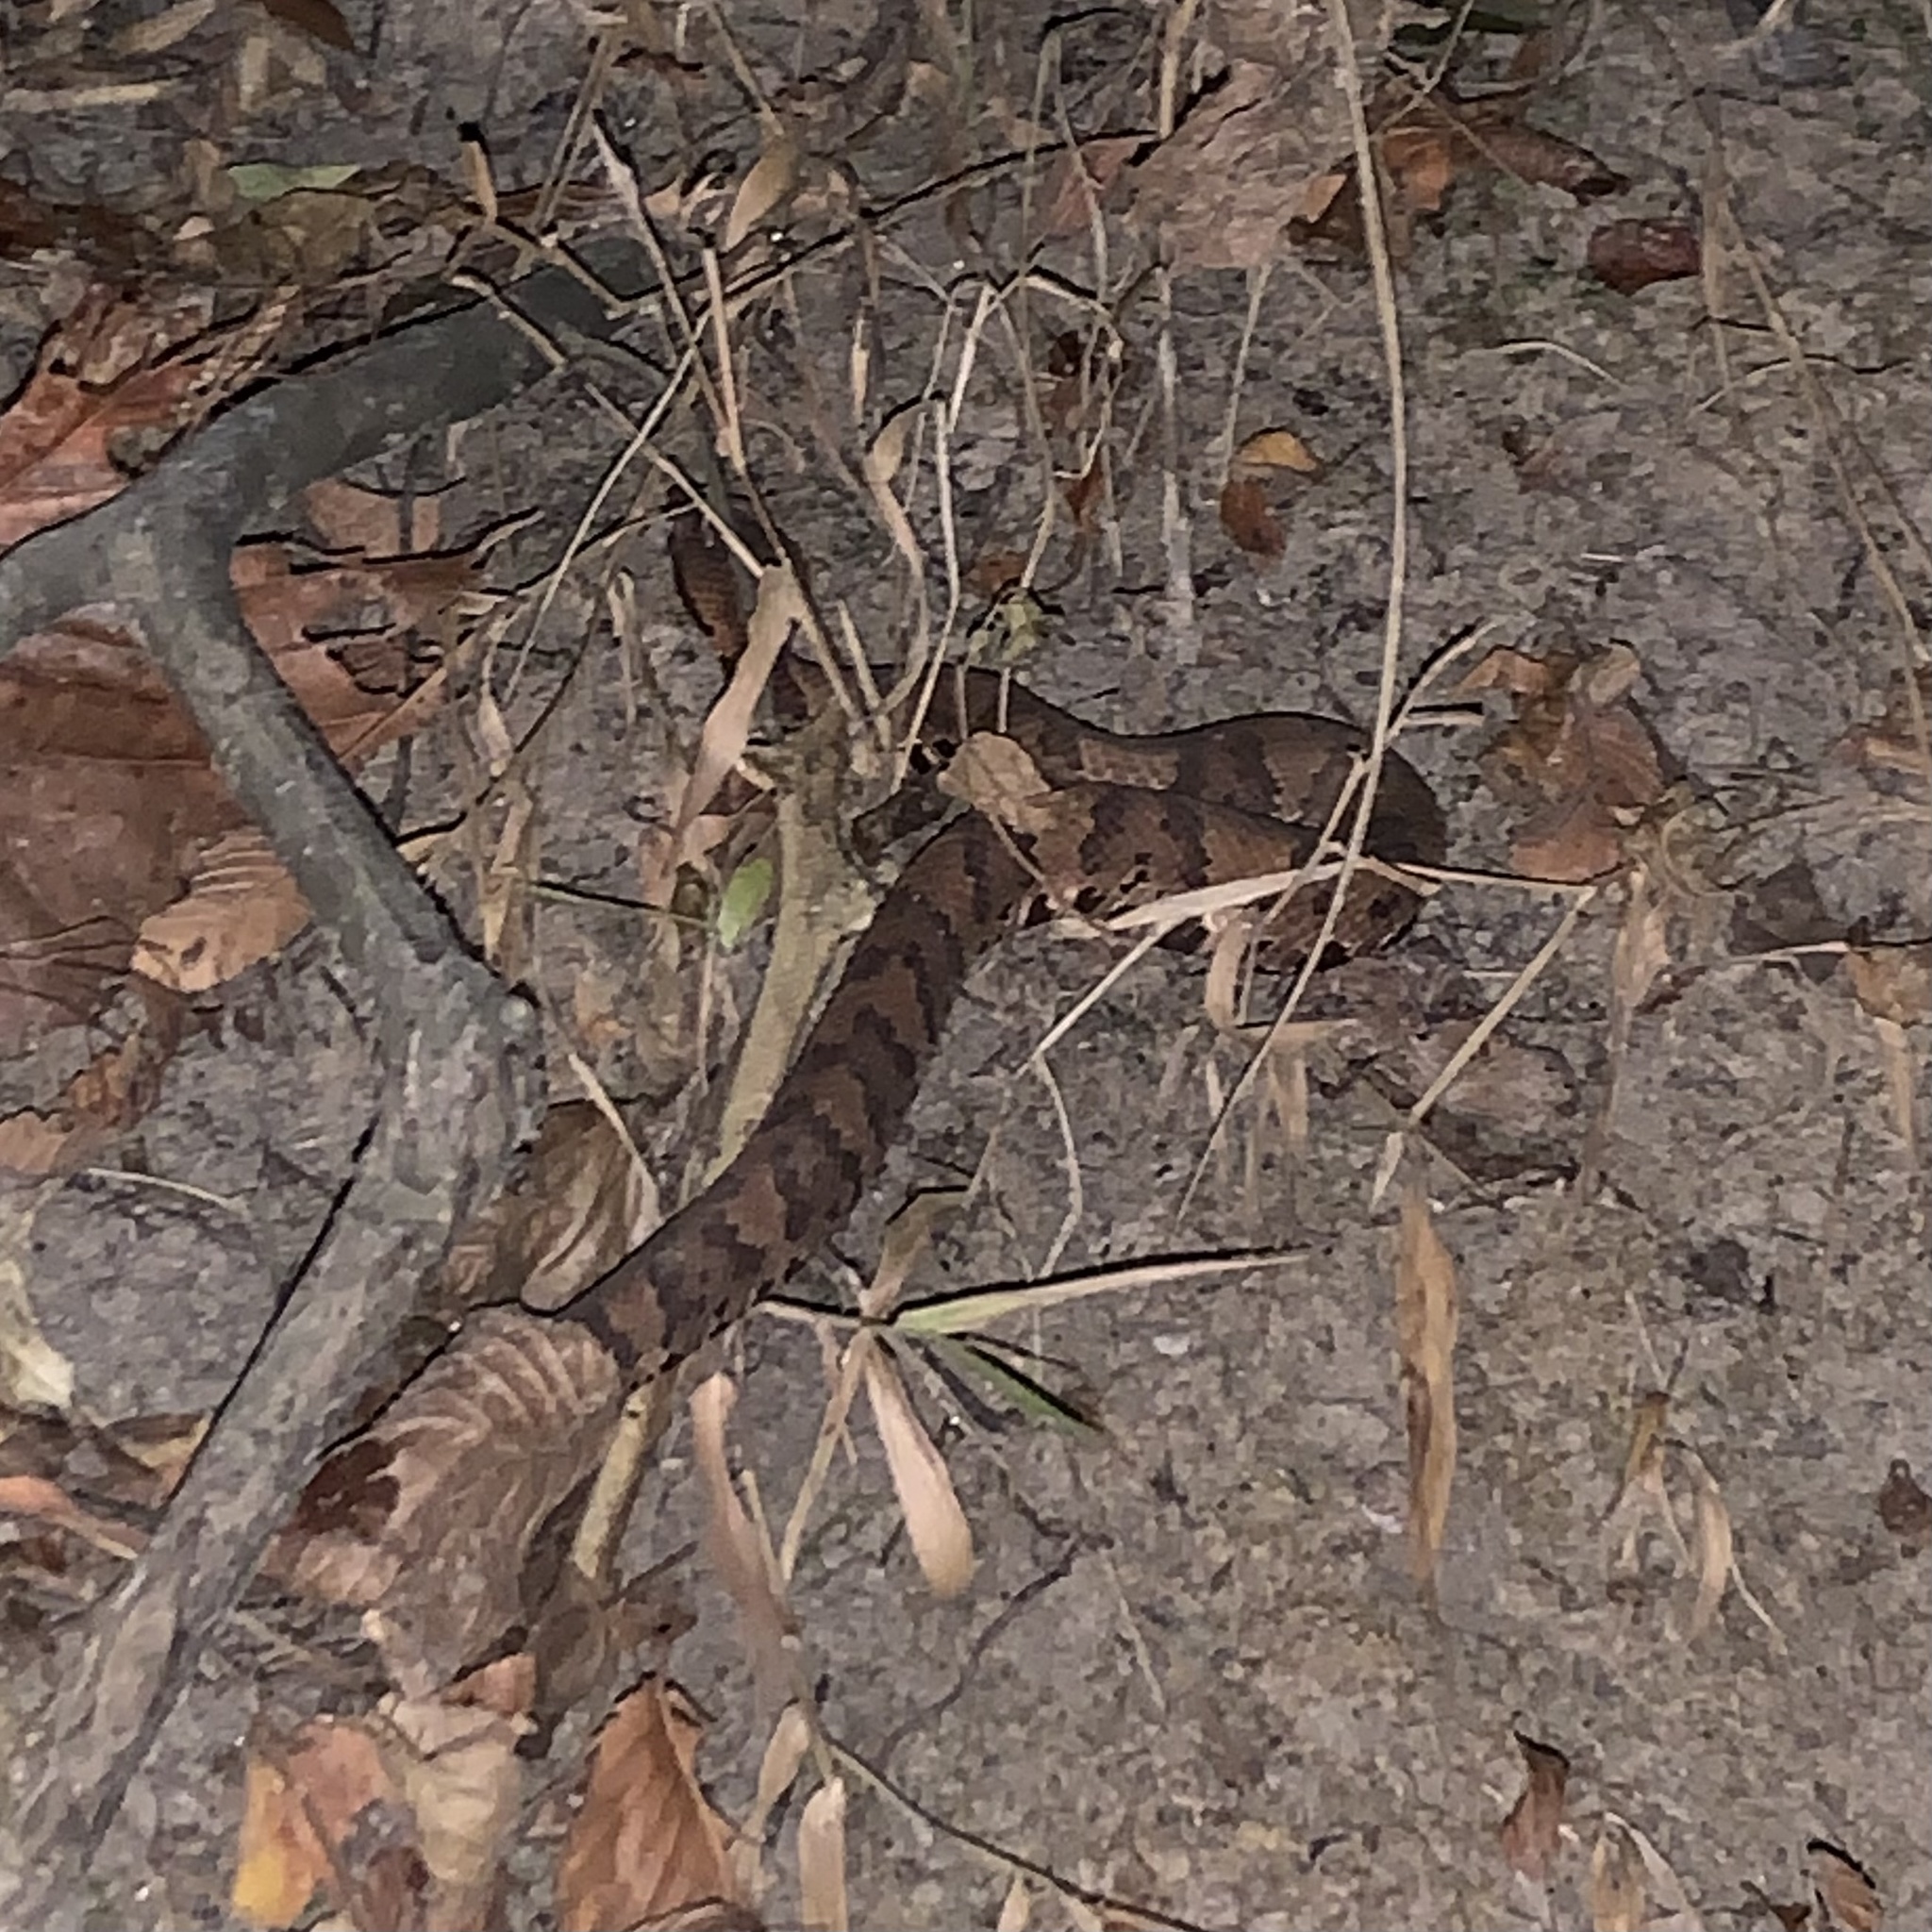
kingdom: Animalia
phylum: Chordata
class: Squamata
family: Viperidae
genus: Agkistrodon
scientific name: Agkistrodon piscivorus
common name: Cottonmouth
